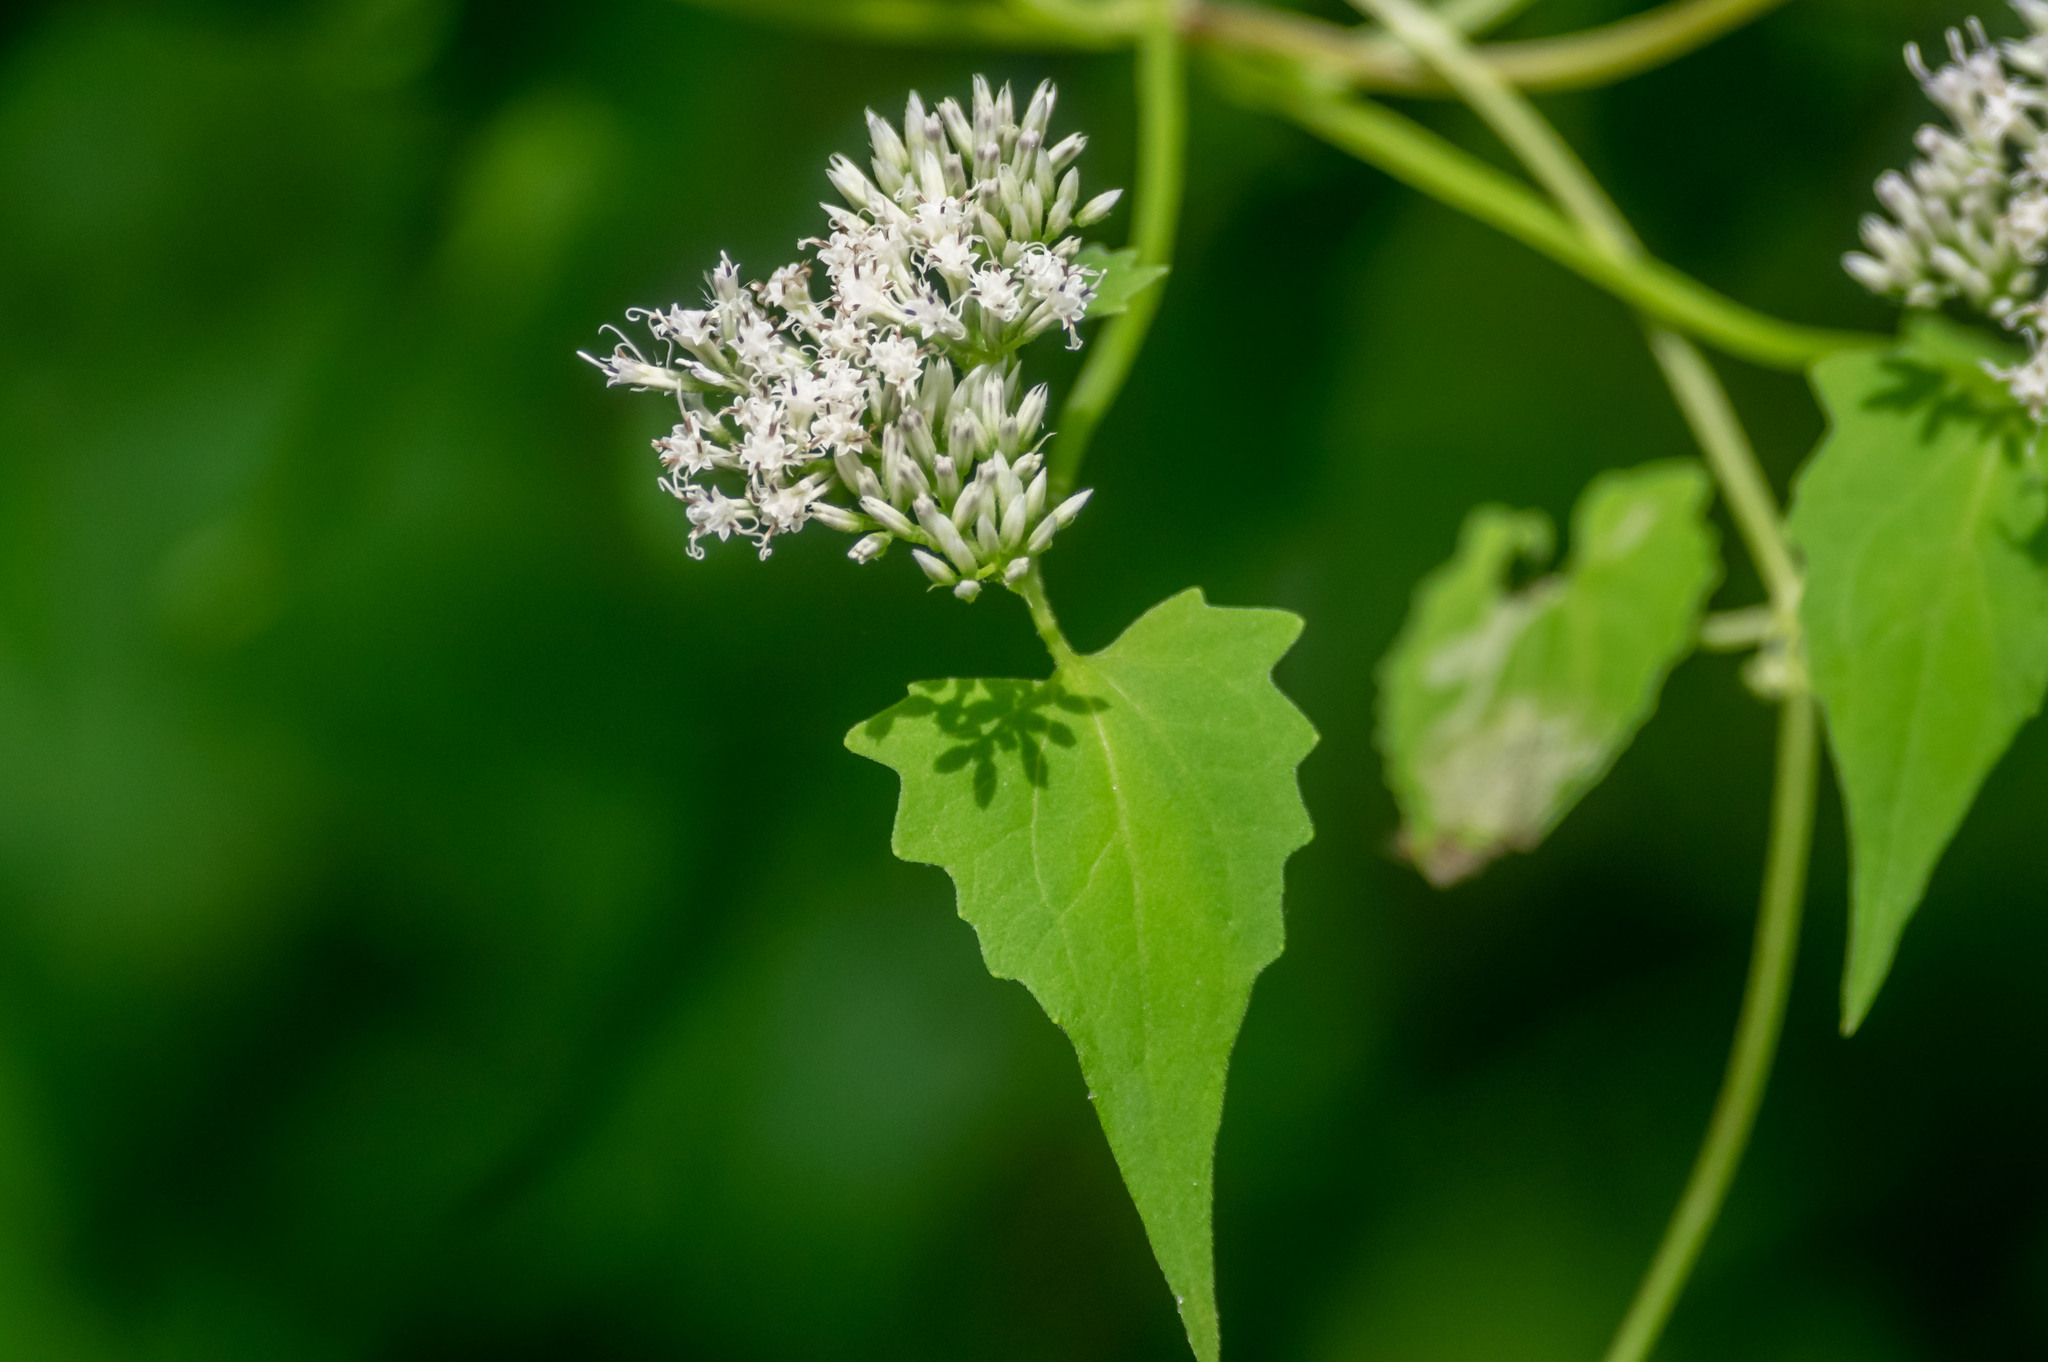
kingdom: Plantae
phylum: Tracheophyta
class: Magnoliopsida
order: Asterales
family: Asteraceae
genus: Mikania
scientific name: Mikania scandens
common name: Climbing hempvine
